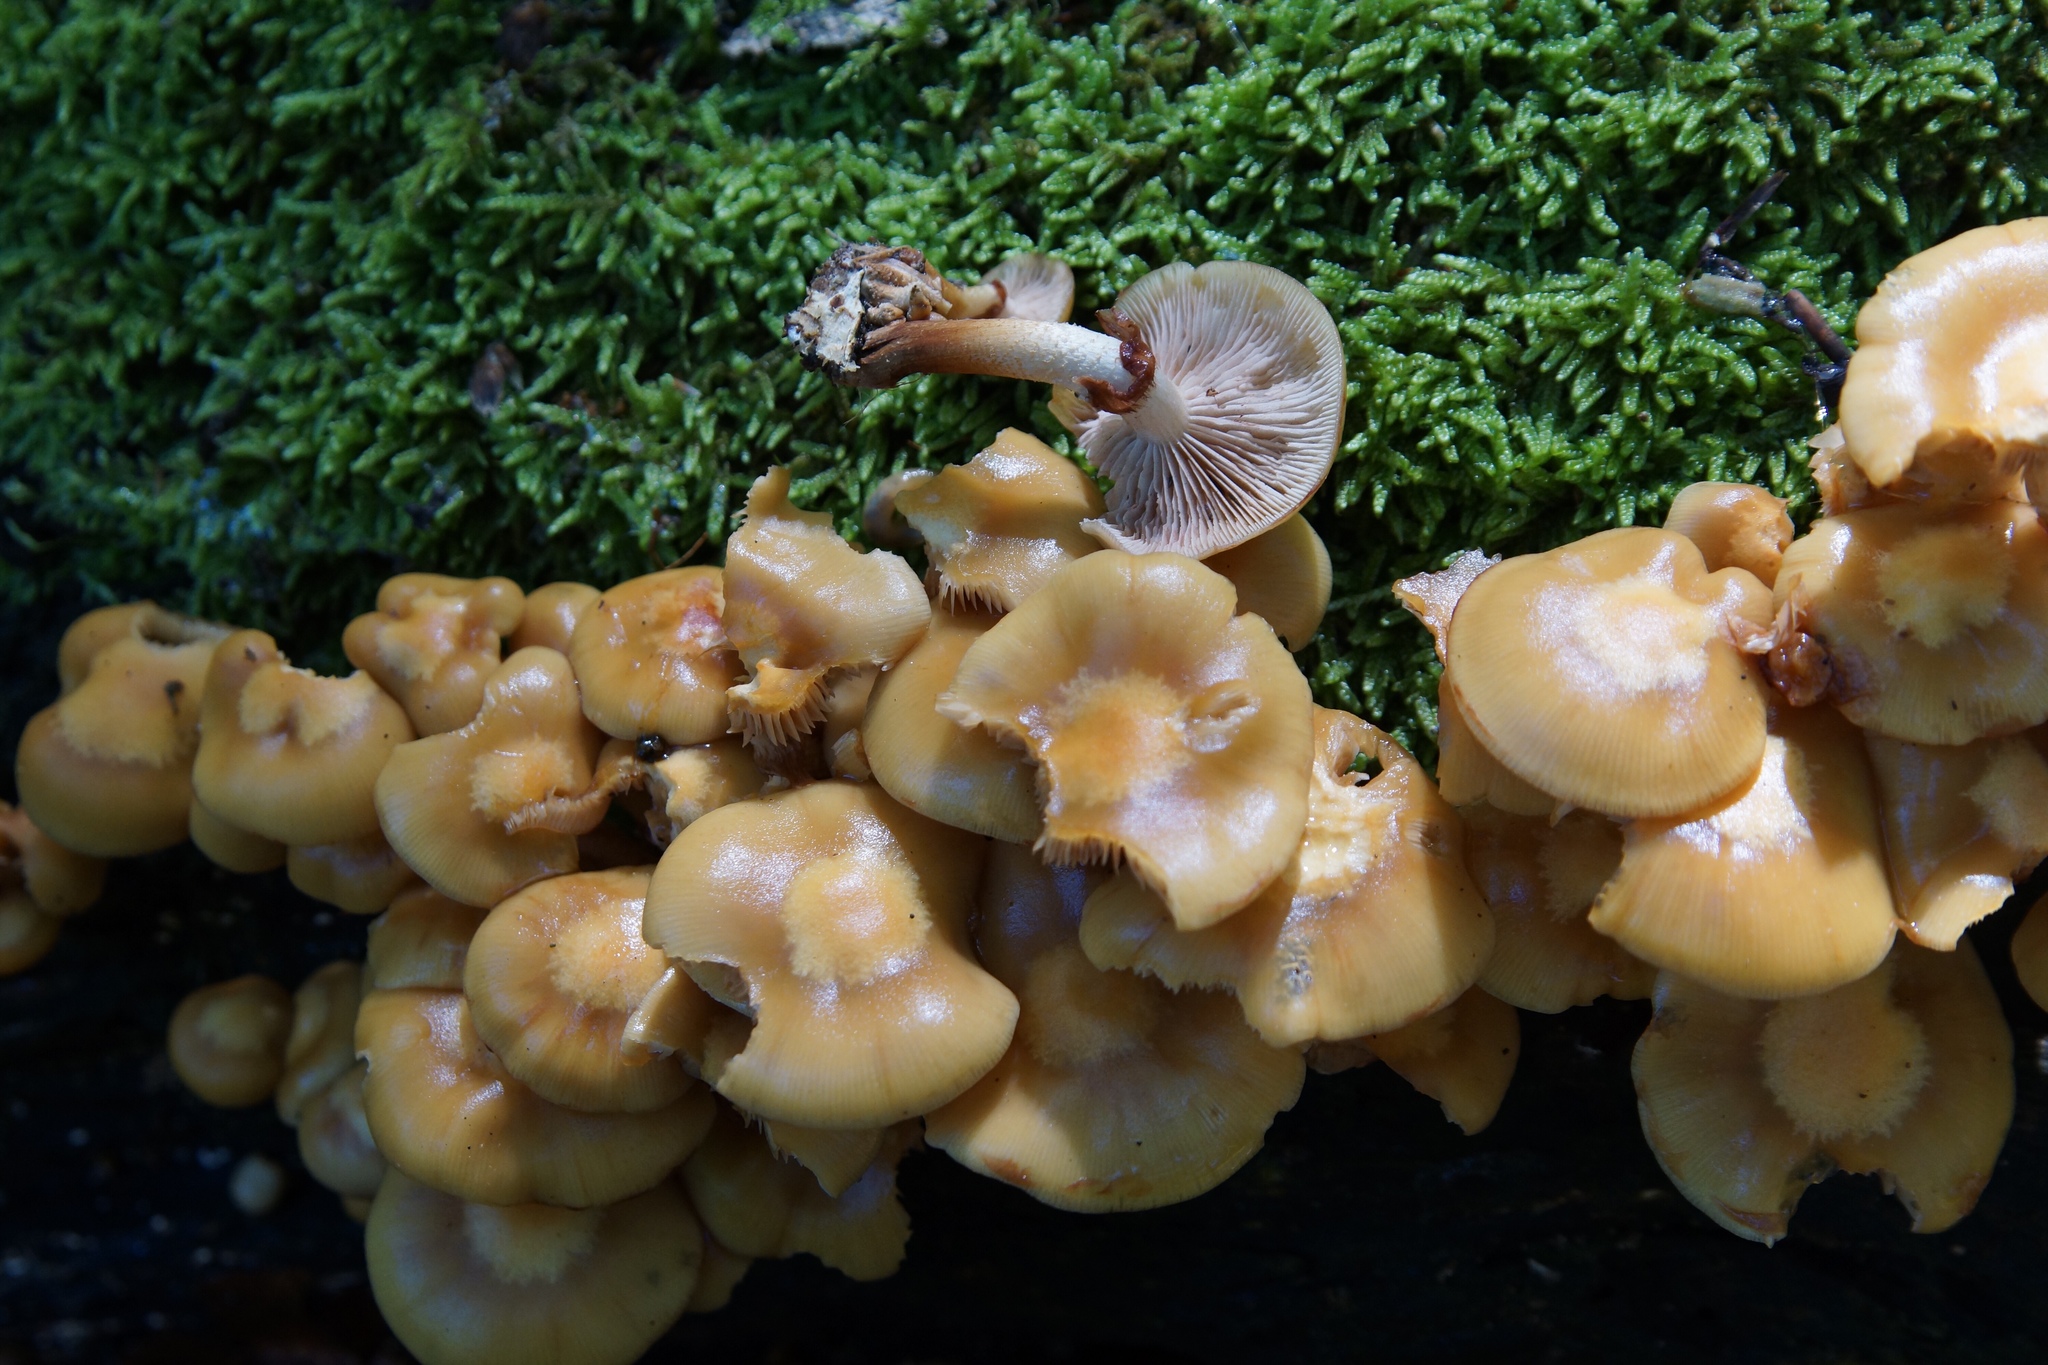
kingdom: Fungi
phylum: Basidiomycota
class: Agaricomycetes
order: Agaricales
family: Strophariaceae
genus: Kuehneromyces
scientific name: Kuehneromyces mutabilis
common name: Sheathed woodtuft
